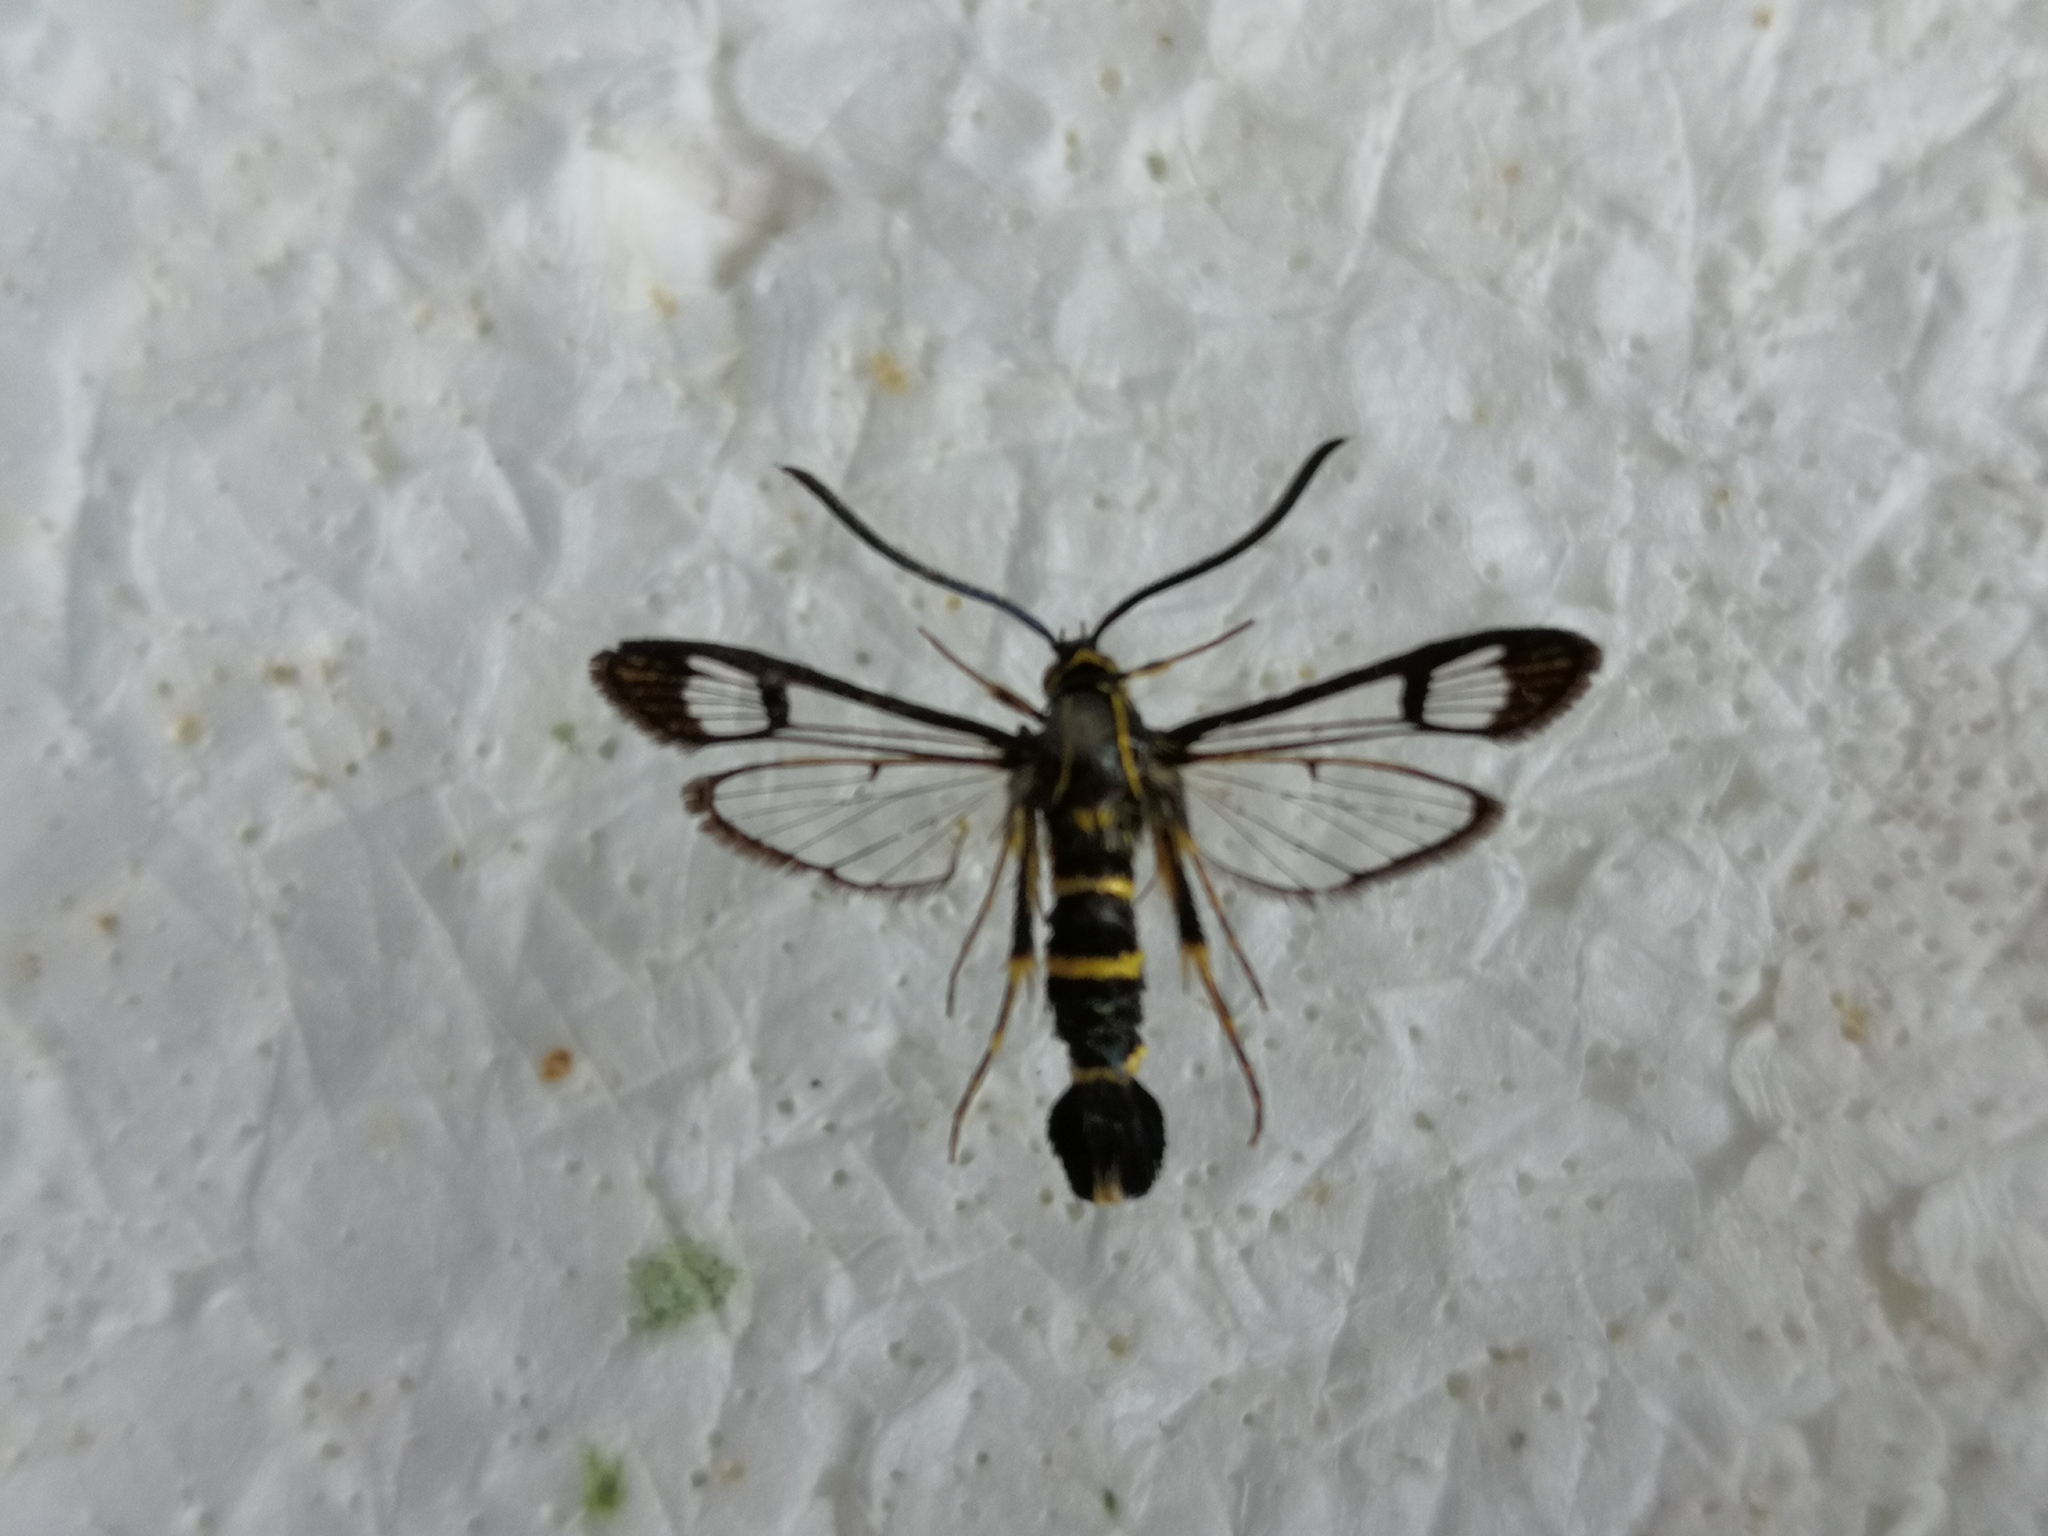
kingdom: Animalia
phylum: Arthropoda
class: Insecta
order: Lepidoptera
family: Sesiidae
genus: Synanthedon
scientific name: Synanthedon loranthi
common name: Mistletoe clearwing
